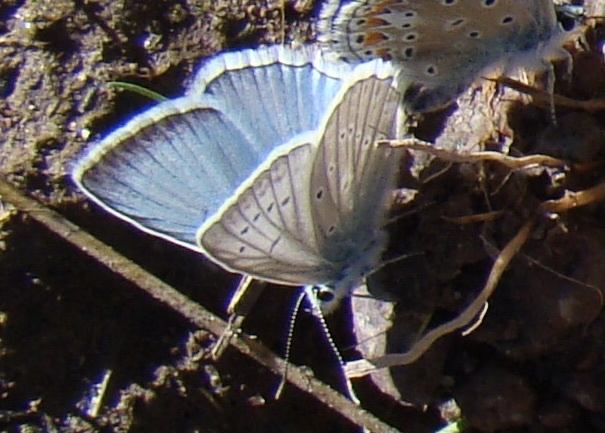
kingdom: Animalia
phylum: Arthropoda
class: Insecta
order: Lepidoptera
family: Lycaenidae
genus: Polyommatus
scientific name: Polyommatus daphnis
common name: Meleager's blue
